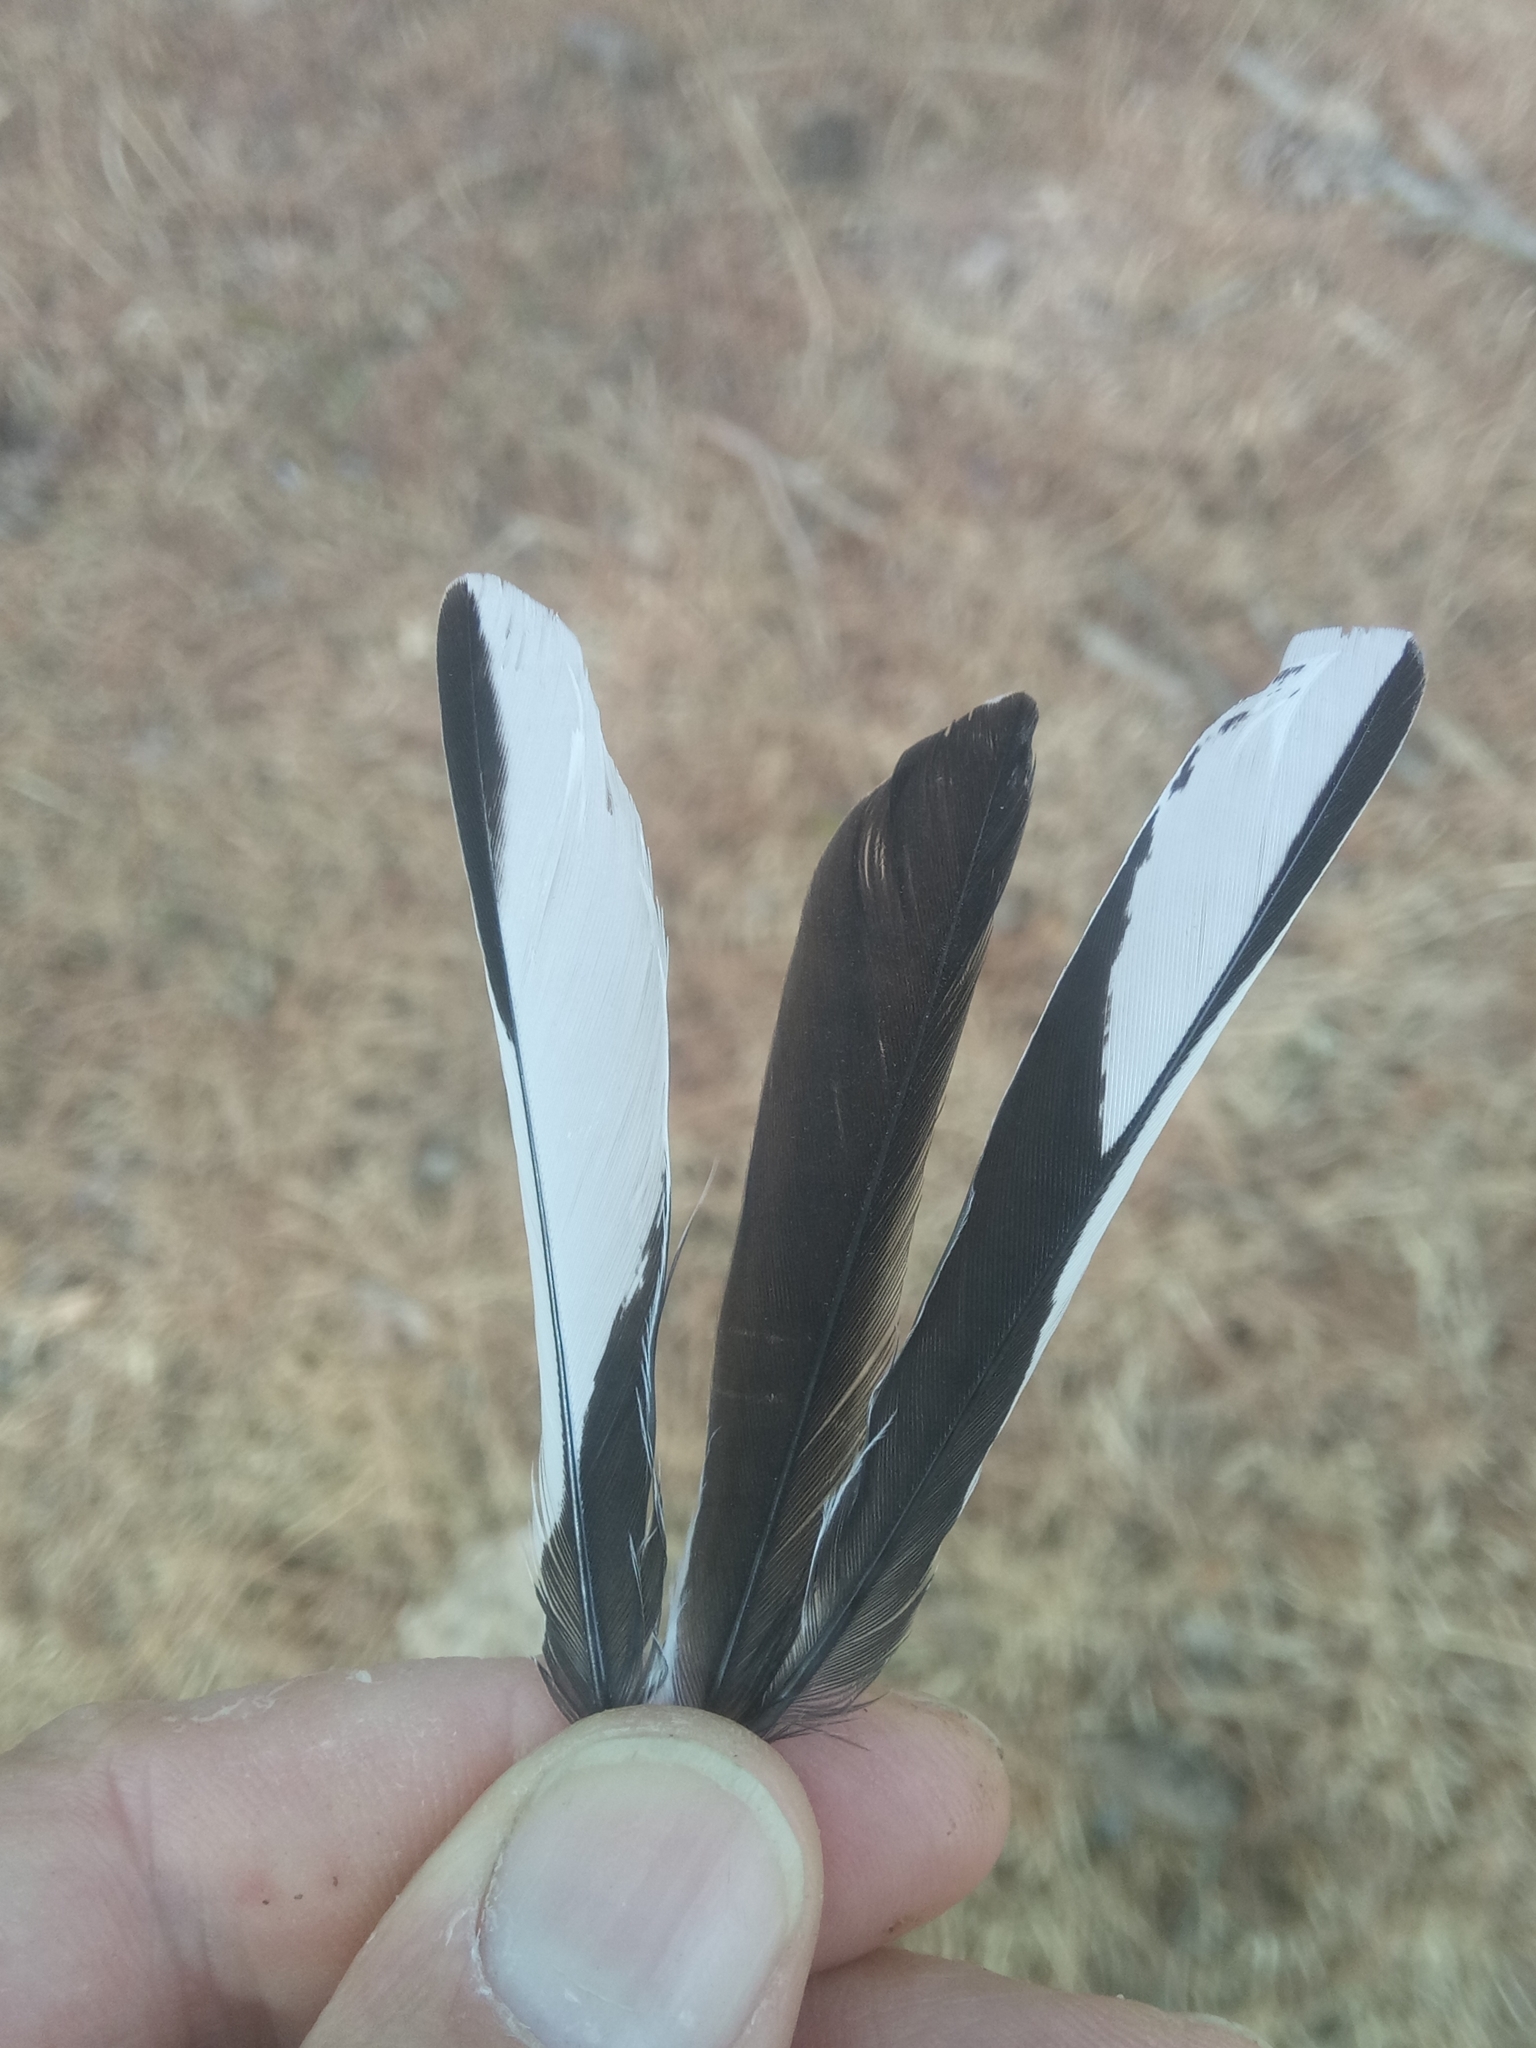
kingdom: Animalia
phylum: Chordata
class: Aves
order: Passeriformes
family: Fringillidae
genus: Fringilla
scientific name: Fringilla spodiogenys
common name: African chaffinch
